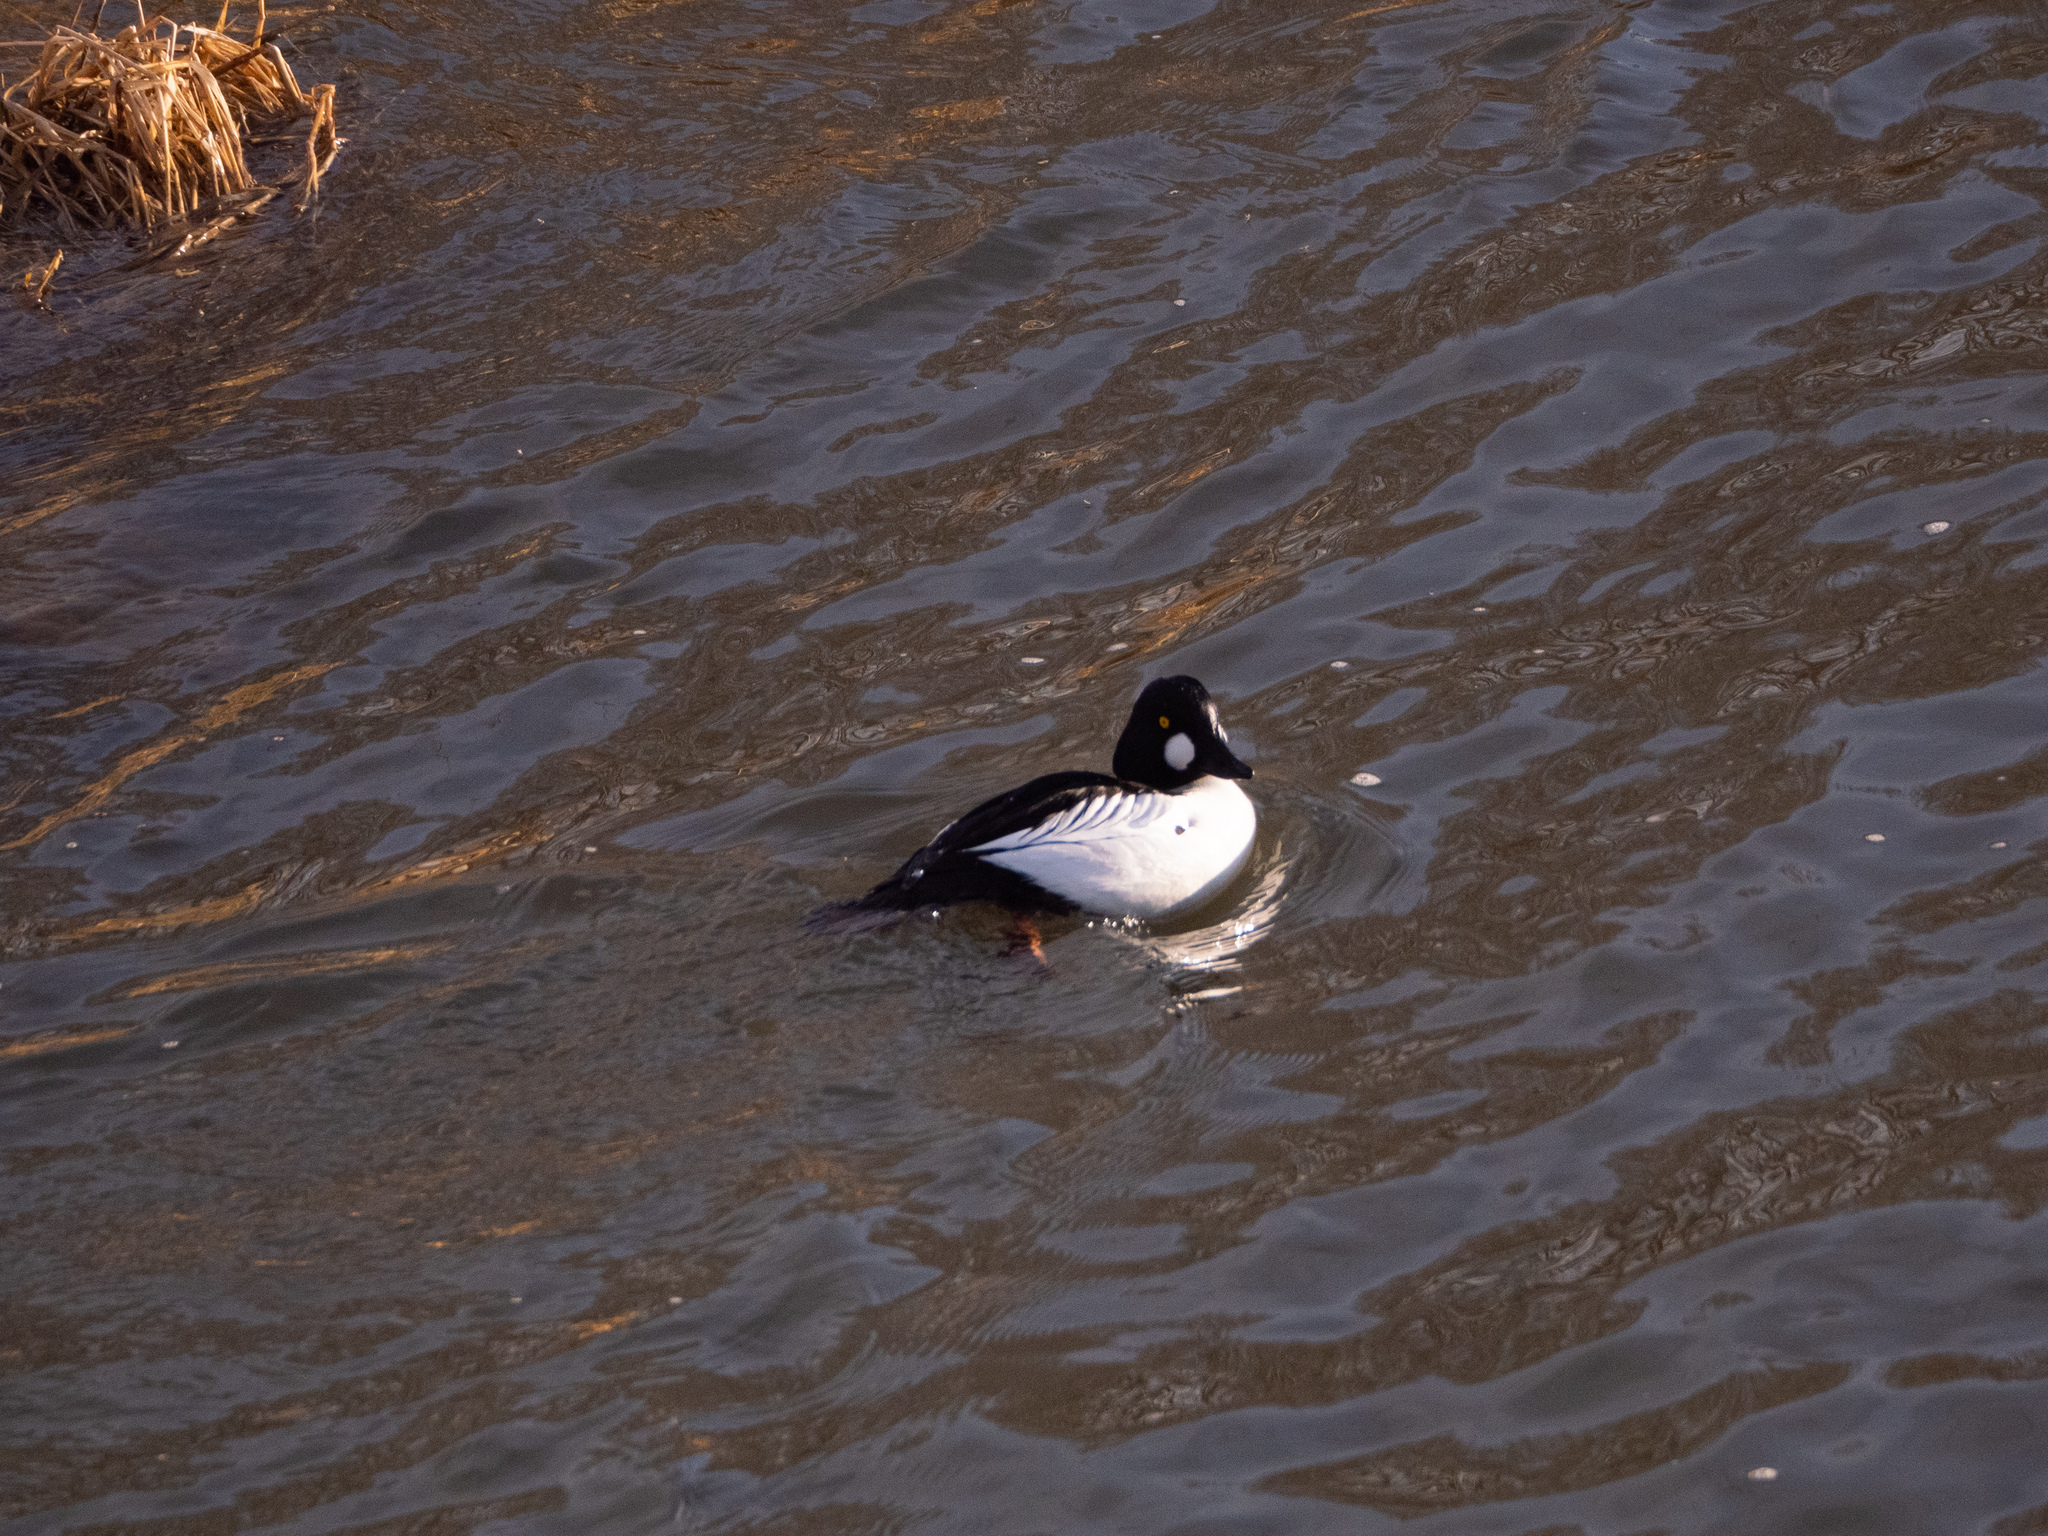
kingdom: Animalia
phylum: Chordata
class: Aves
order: Anseriformes
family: Anatidae
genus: Bucephala
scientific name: Bucephala clangula
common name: Common goldeneye
